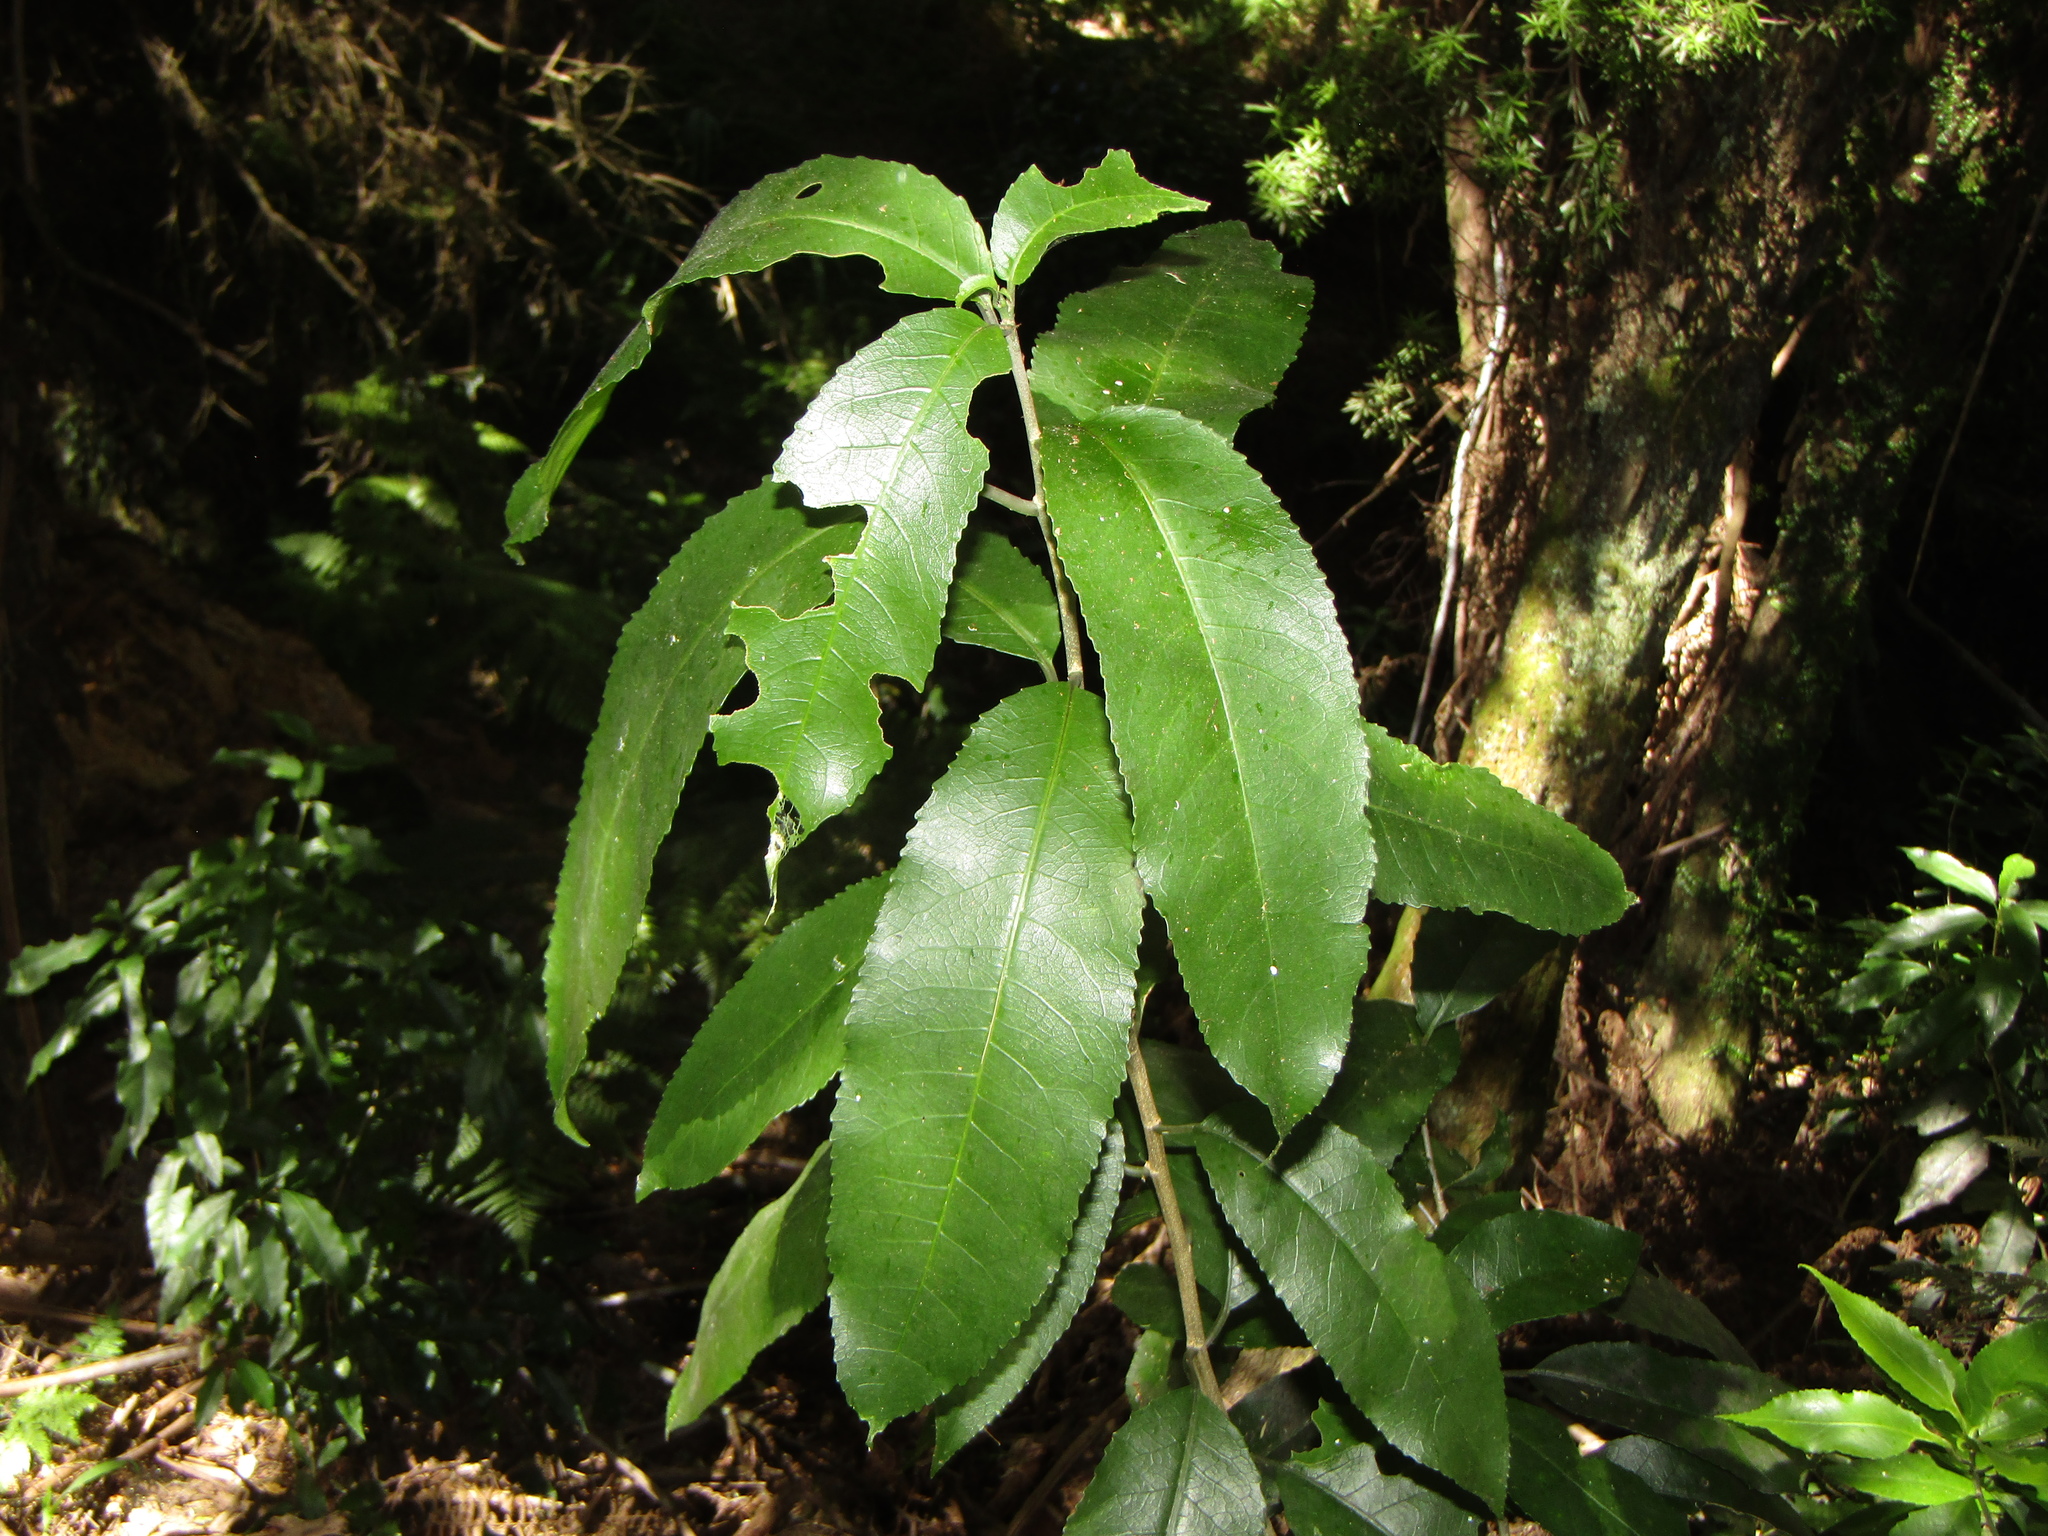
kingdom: Plantae
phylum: Tracheophyta
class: Magnoliopsida
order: Malpighiales
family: Violaceae
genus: Melicytus
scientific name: Melicytus ramiflorus
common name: Mahoe
